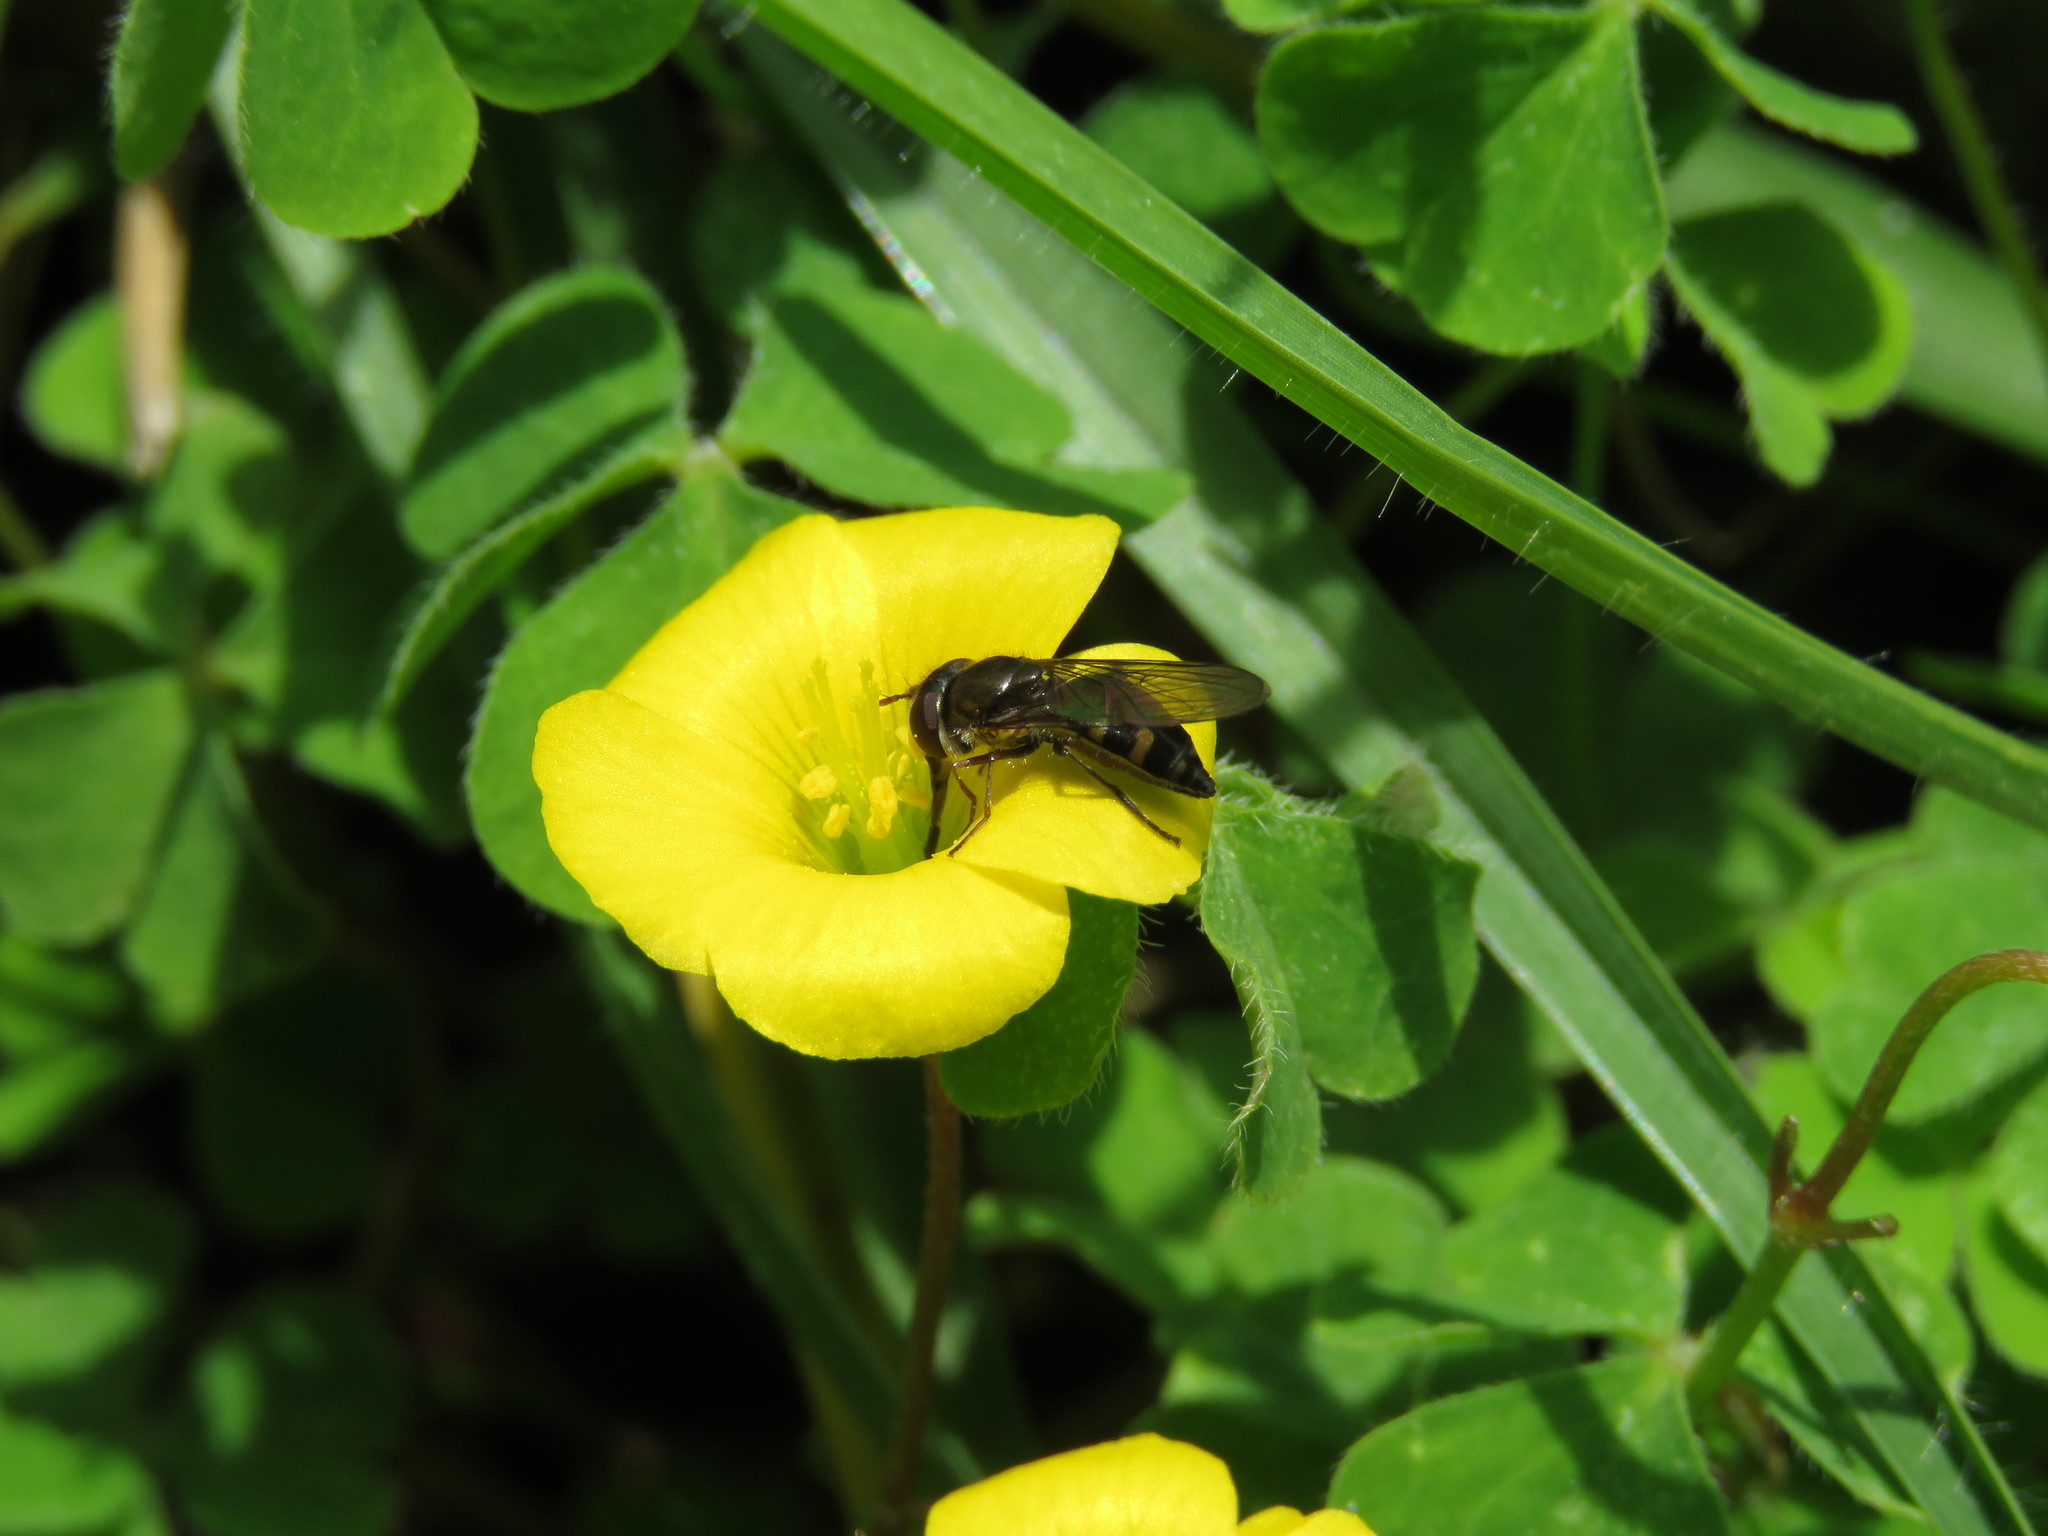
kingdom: Plantae
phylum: Tracheophyta
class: Magnoliopsida
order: Oxalidales
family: Oxalidaceae
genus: Oxalis
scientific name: Oxalis corniculata
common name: Procumbent yellow-sorrel
